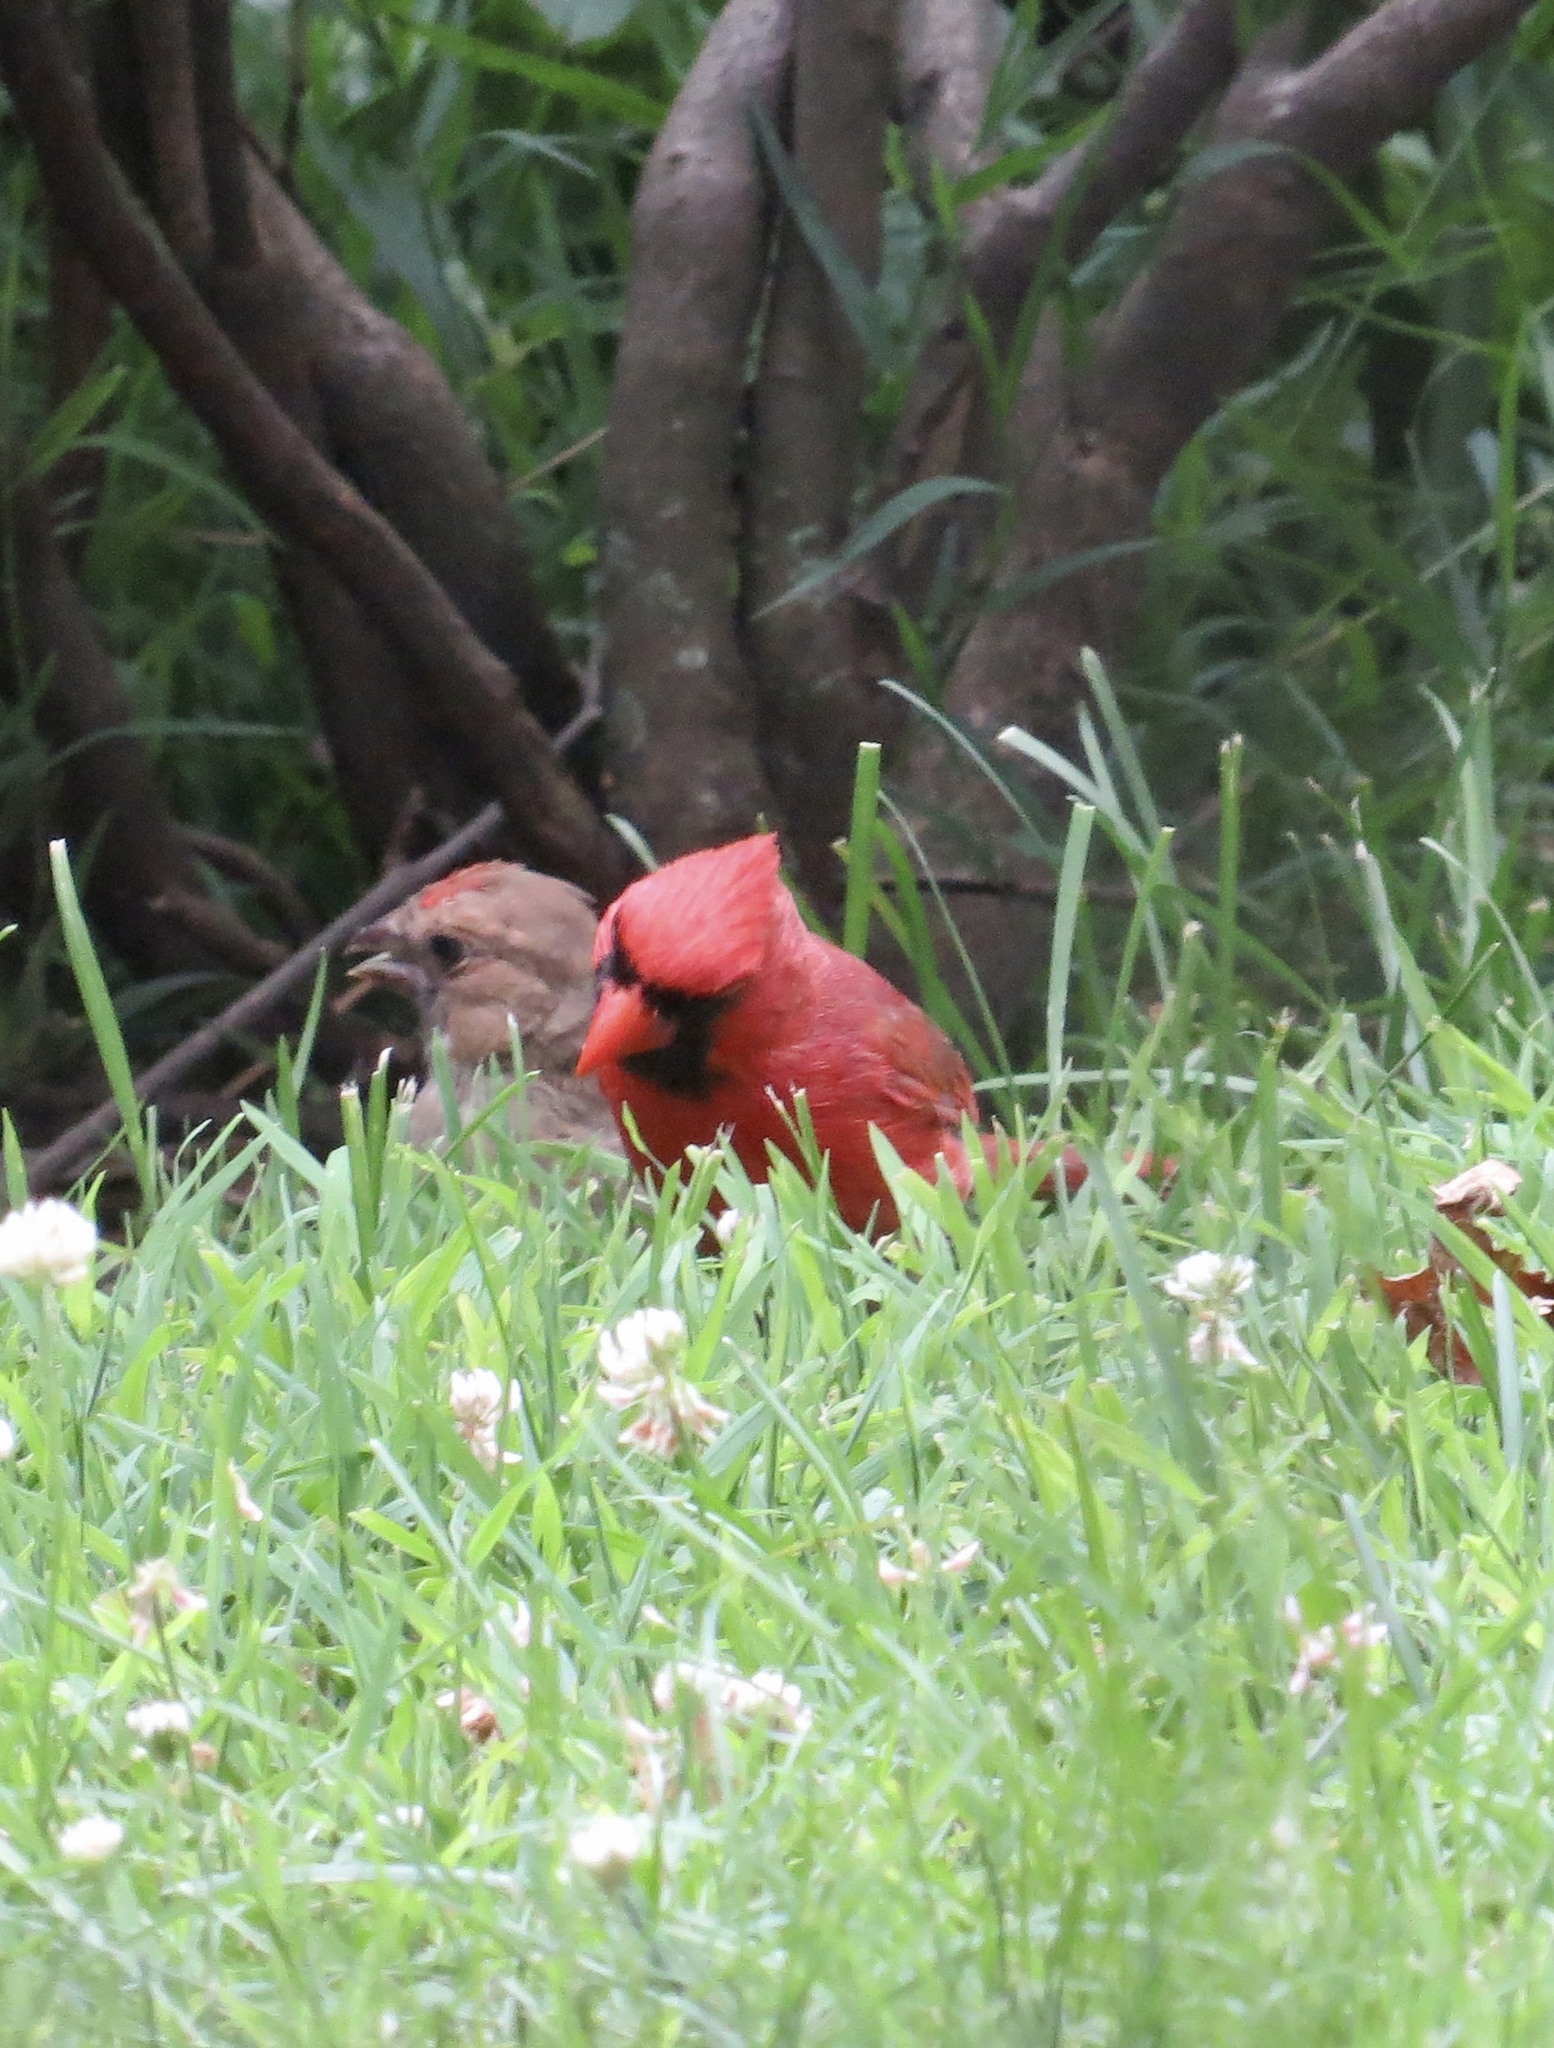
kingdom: Animalia
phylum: Chordata
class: Aves
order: Passeriformes
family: Cardinalidae
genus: Cardinalis
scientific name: Cardinalis cardinalis
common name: Northern cardinal
